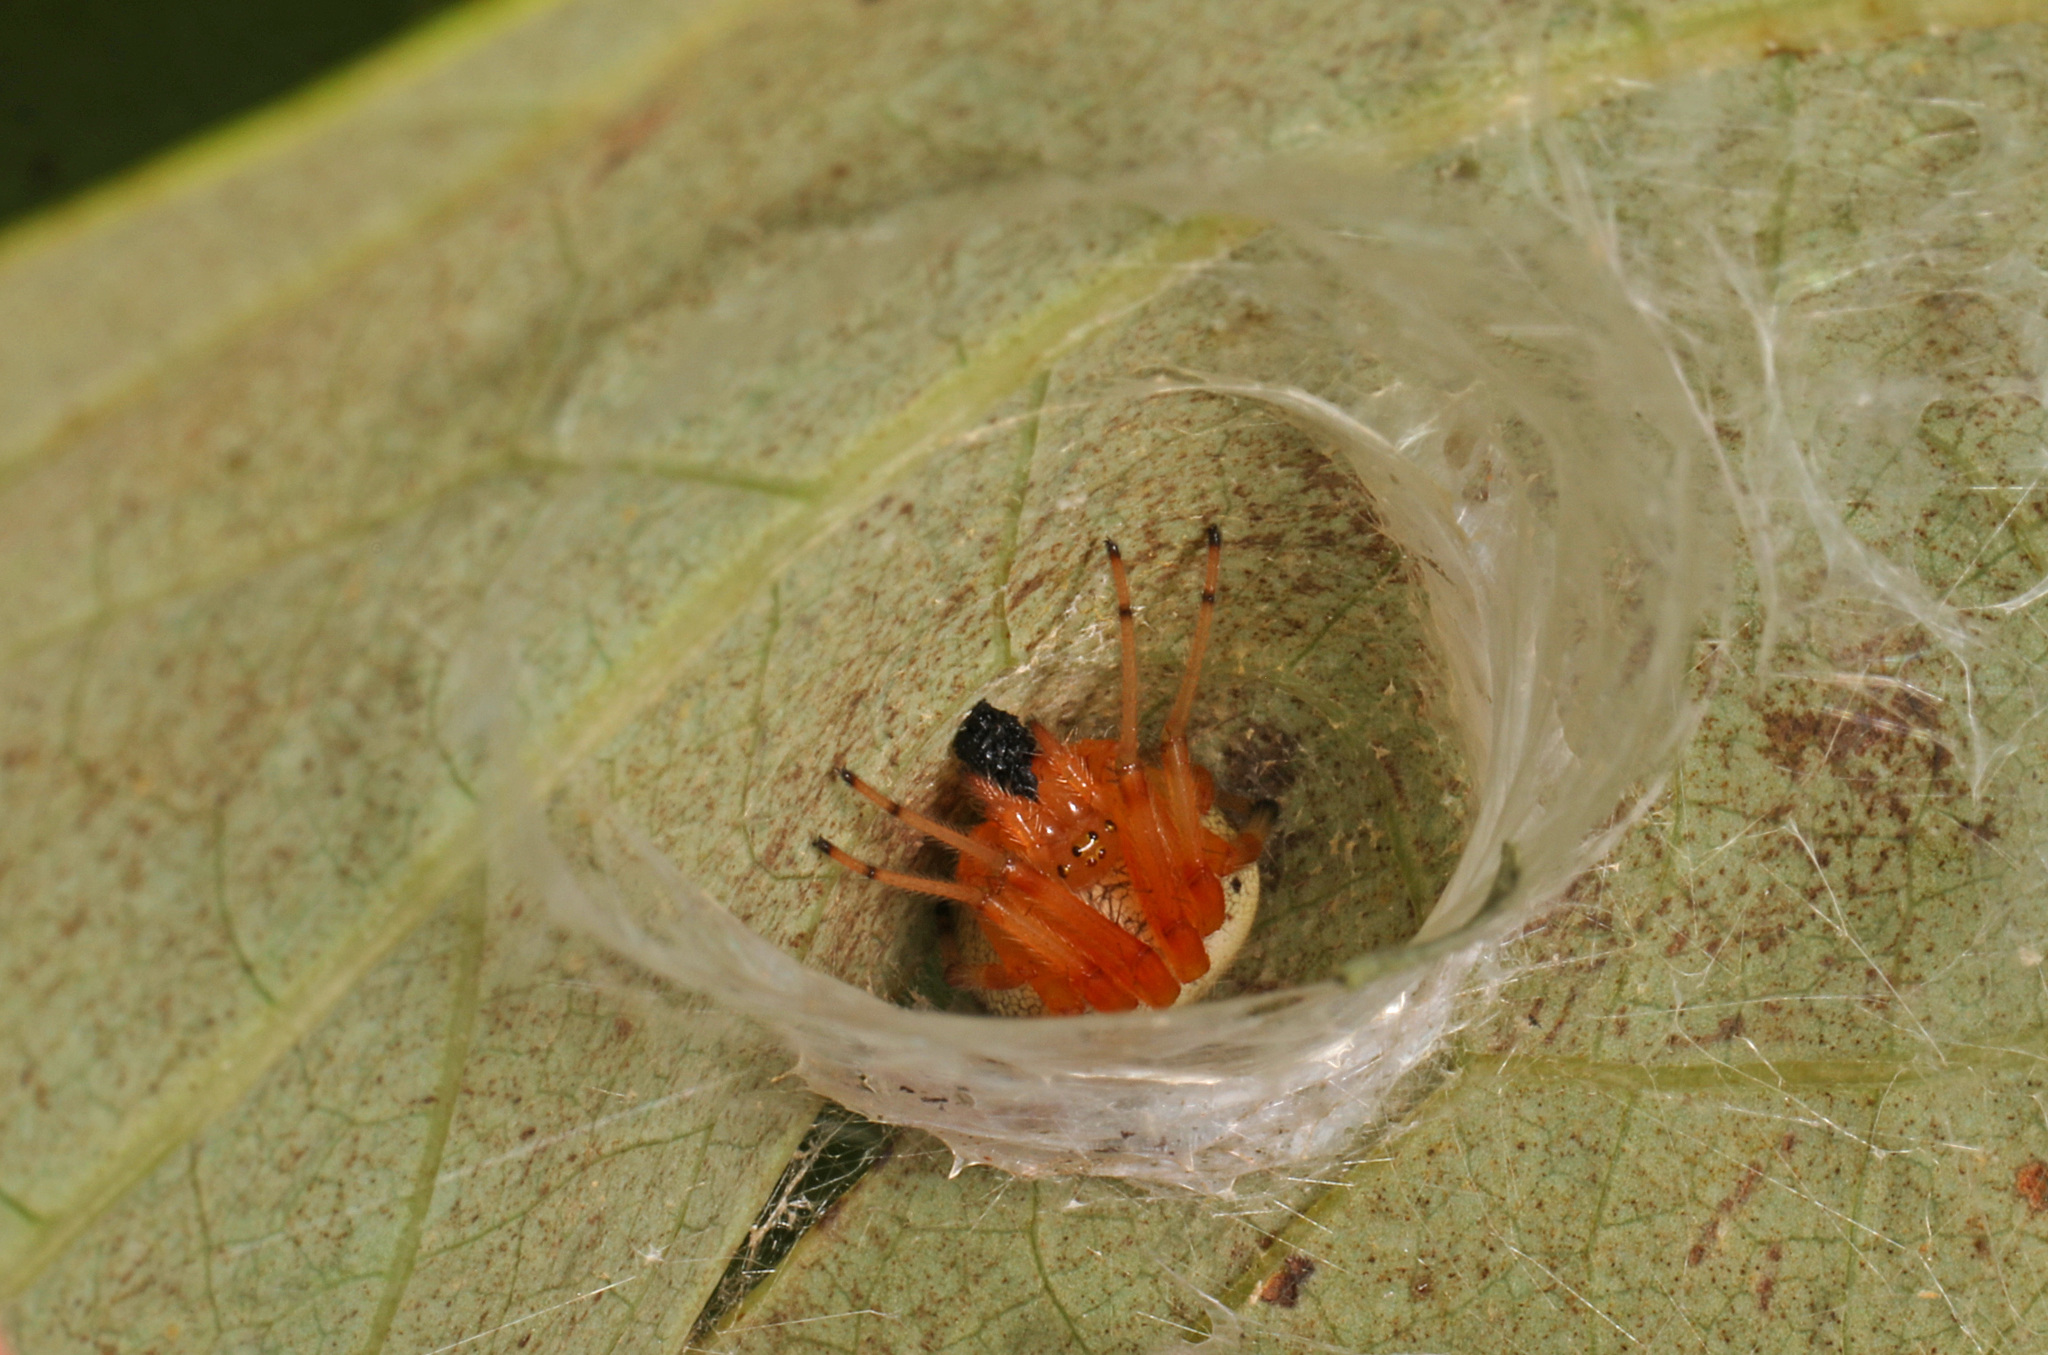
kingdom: Animalia
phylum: Arthropoda
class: Arachnida
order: Araneae
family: Araneidae
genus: Araneus
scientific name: Araneus marmoreus
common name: Marbled orbweaver
